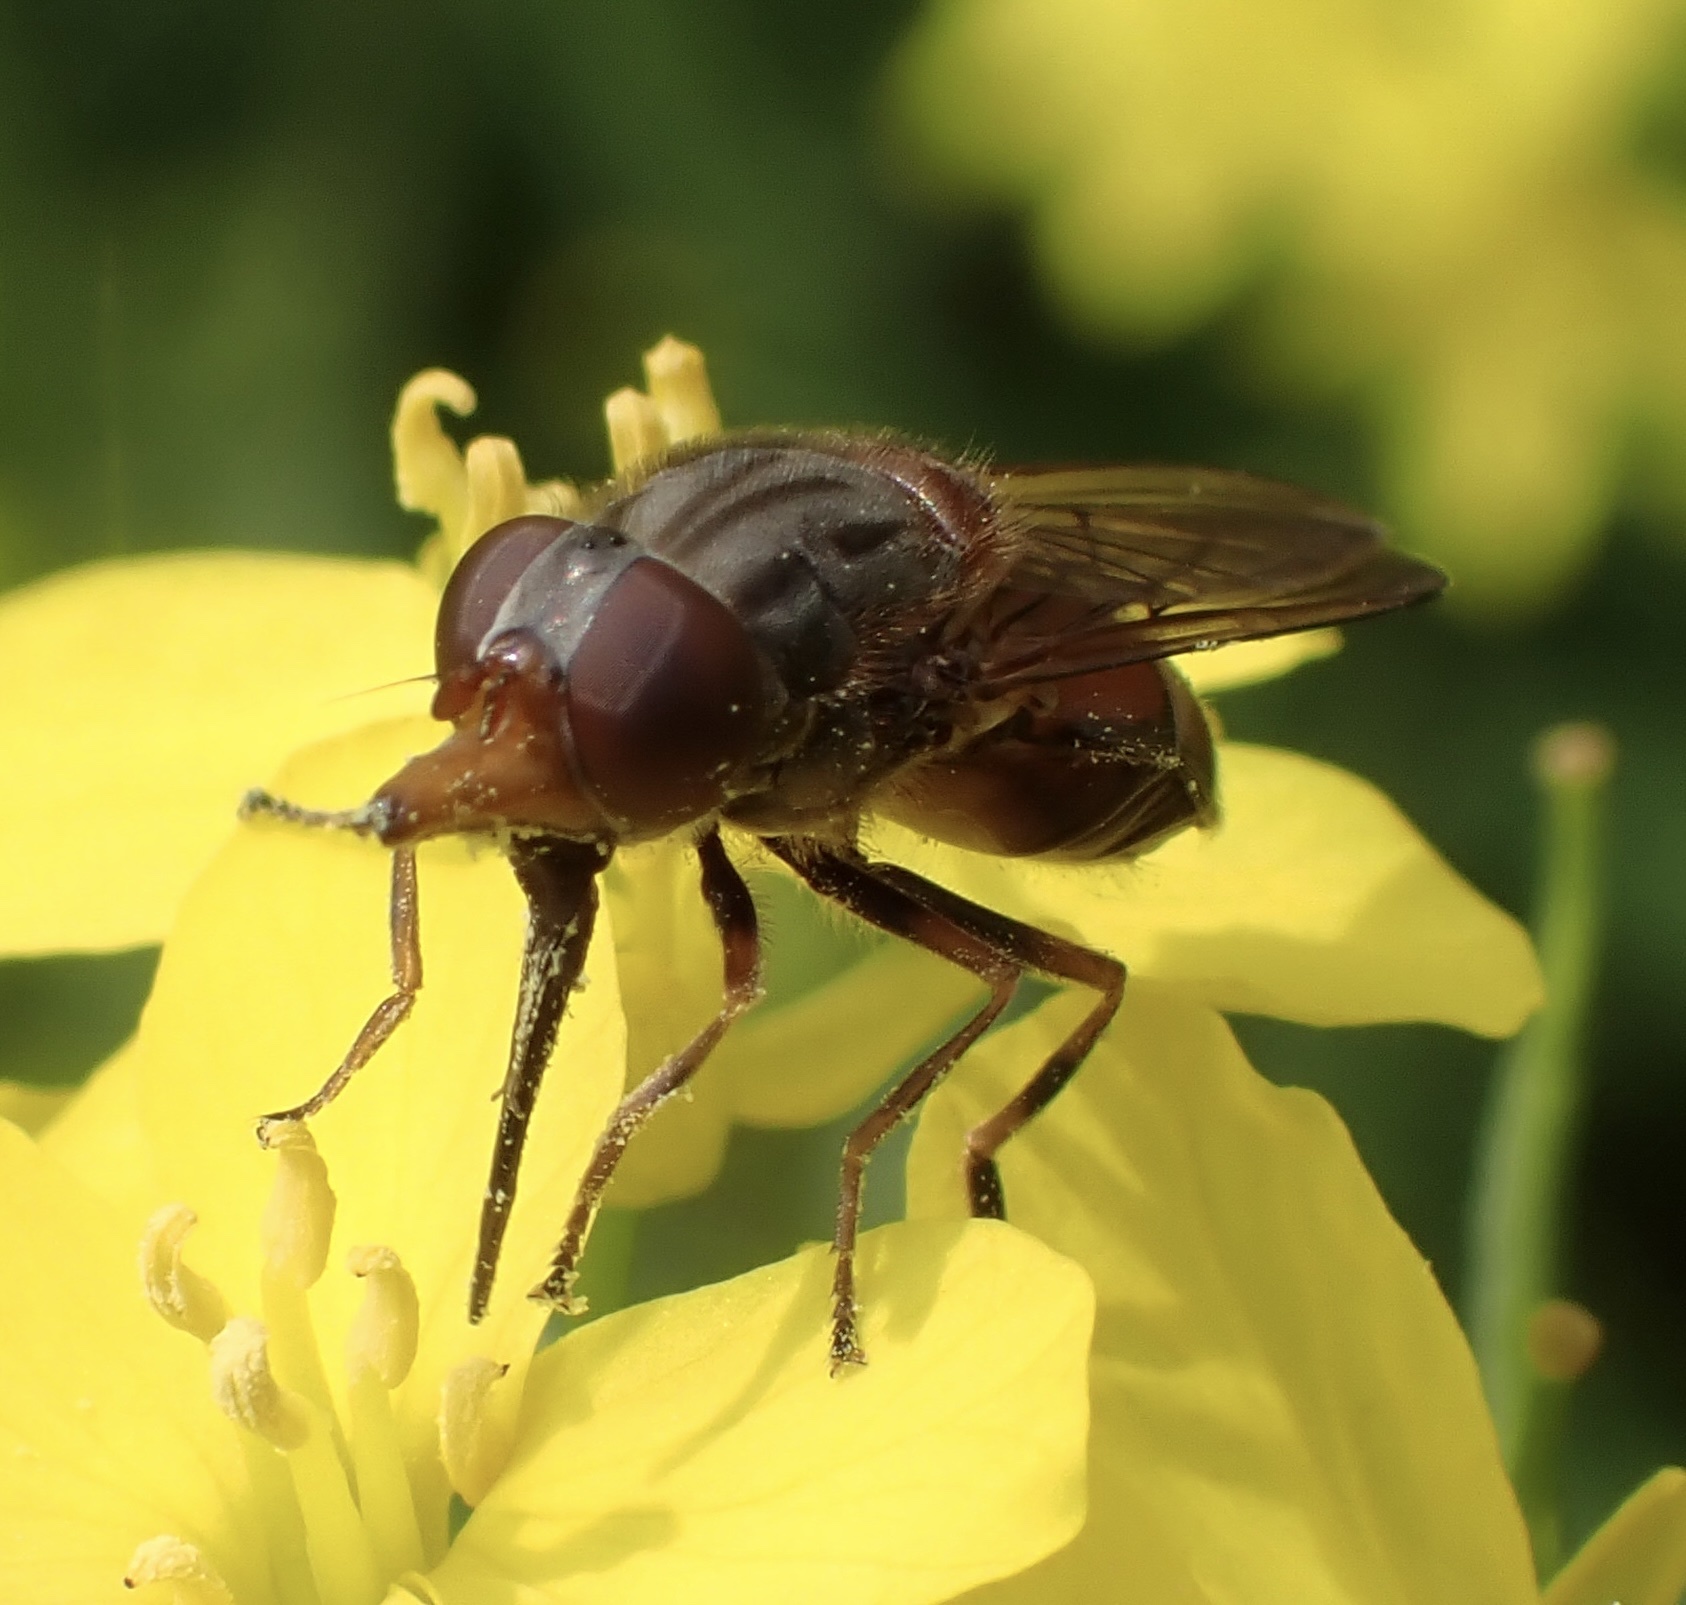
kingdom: Animalia
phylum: Arthropoda
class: Insecta
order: Diptera
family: Syrphidae
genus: Rhingia
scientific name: Rhingia campestris
